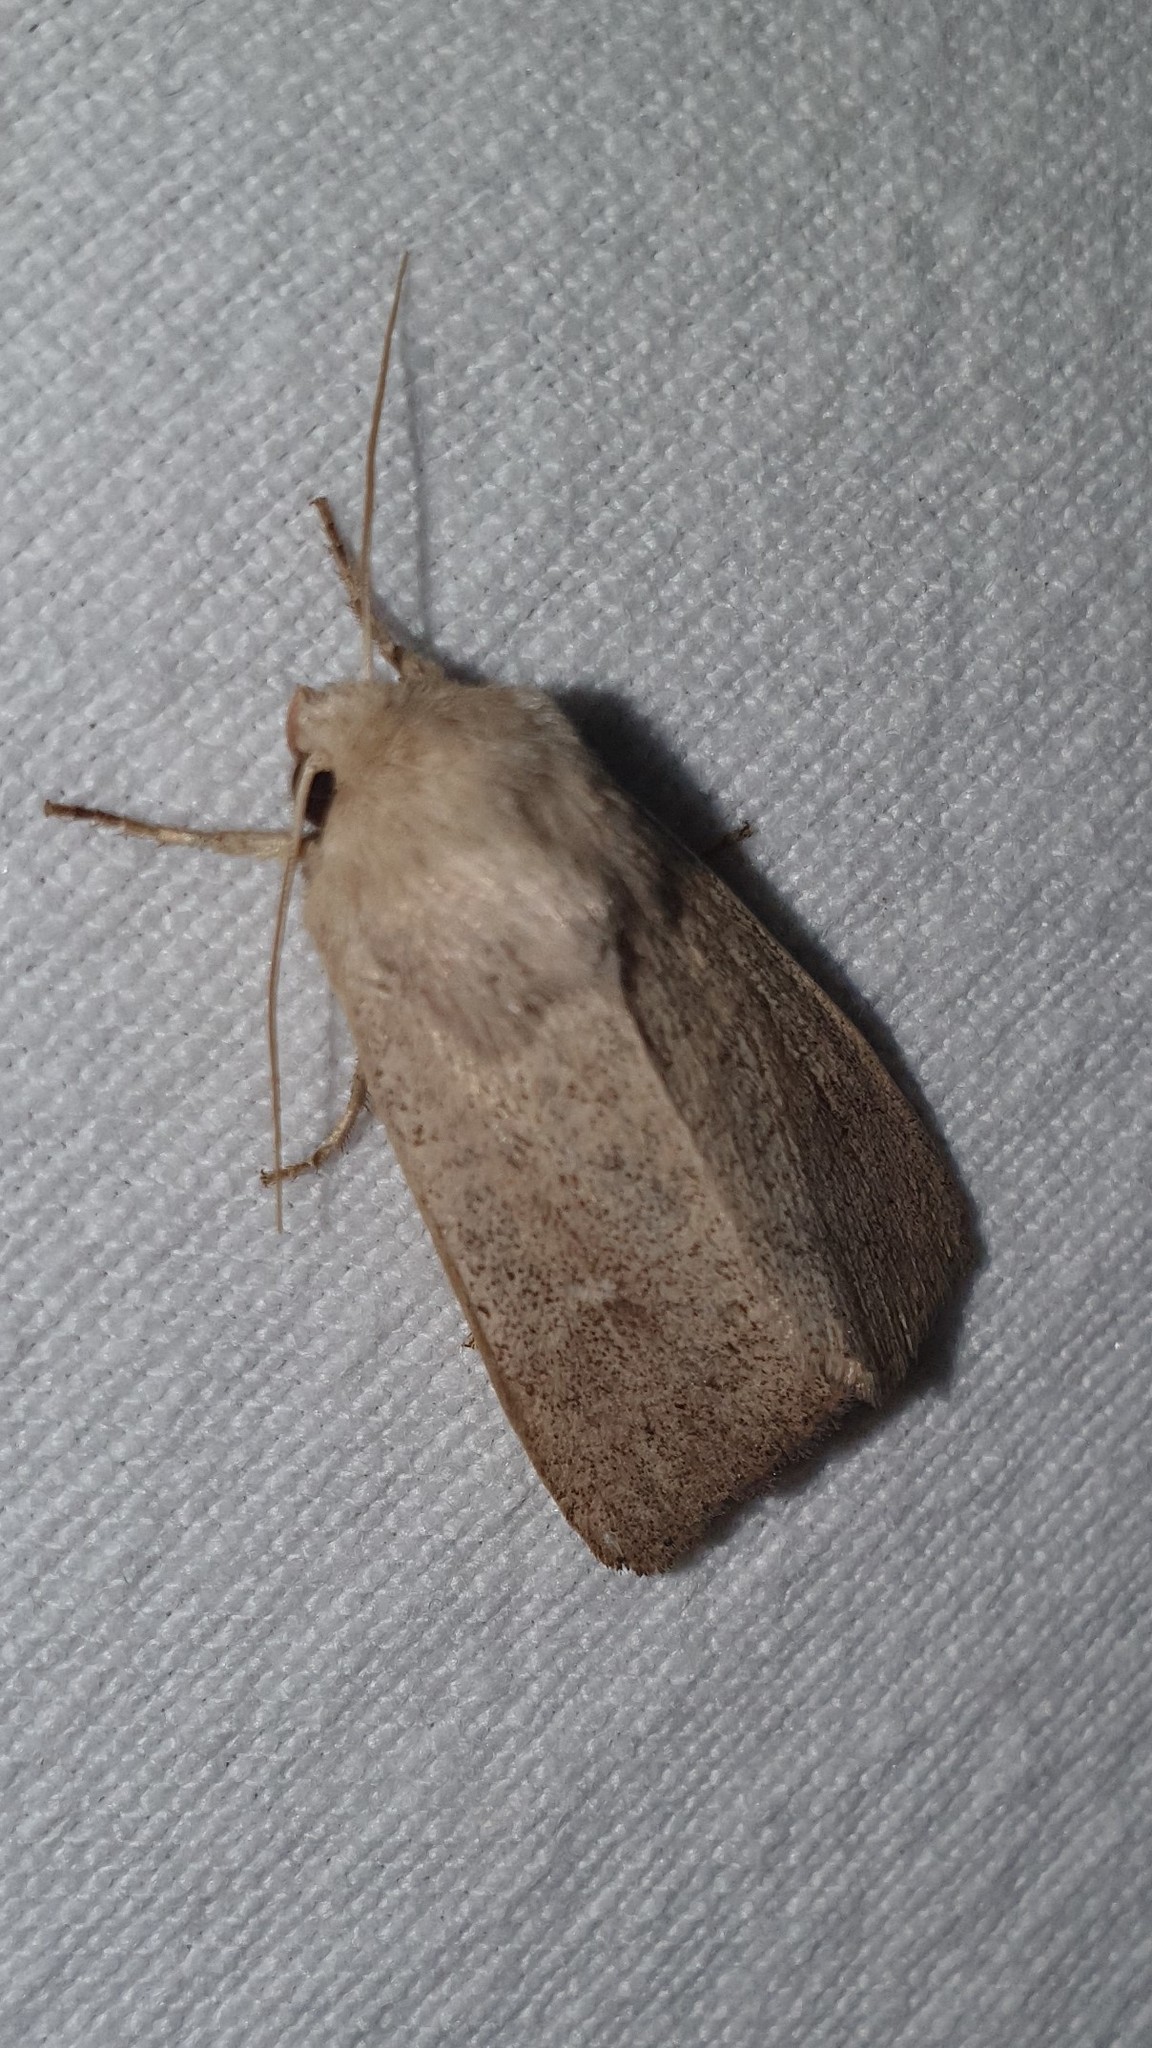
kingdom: Animalia
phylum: Arthropoda
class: Insecta
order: Lepidoptera
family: Noctuidae
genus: Mythimna
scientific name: Mythimna ferrago
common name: Clay
